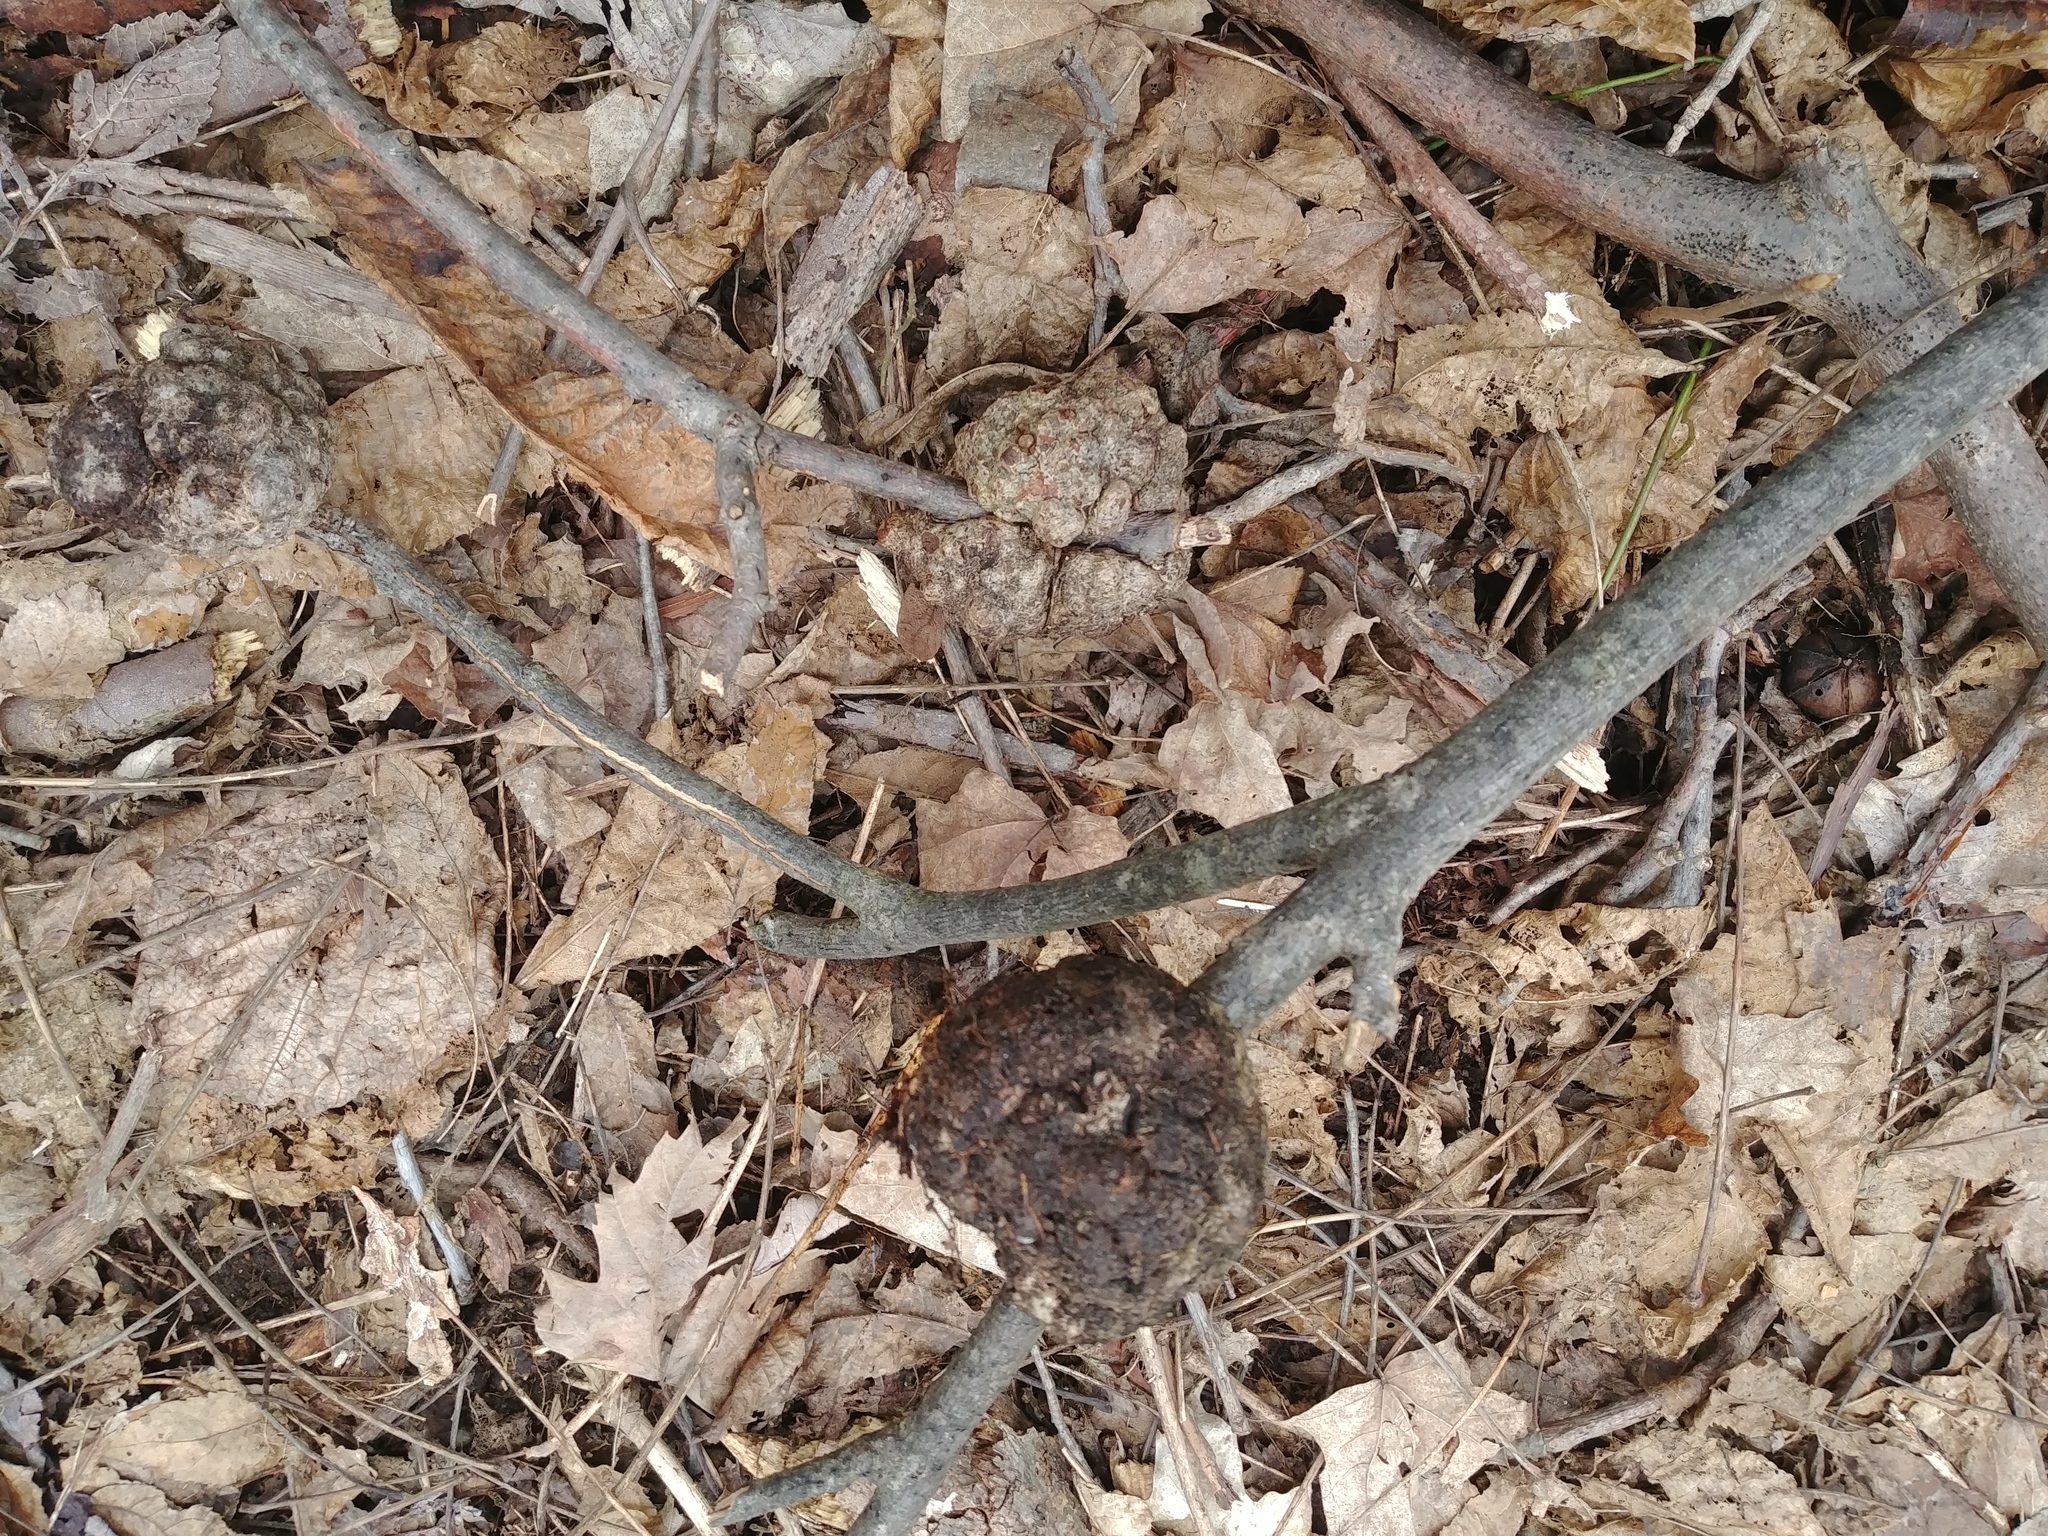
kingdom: Fungi
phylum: Ascomycota
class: Sordariomycetes
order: Diaporthales
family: Diaporthaceae
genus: Diaporthe
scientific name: Diaporthe
